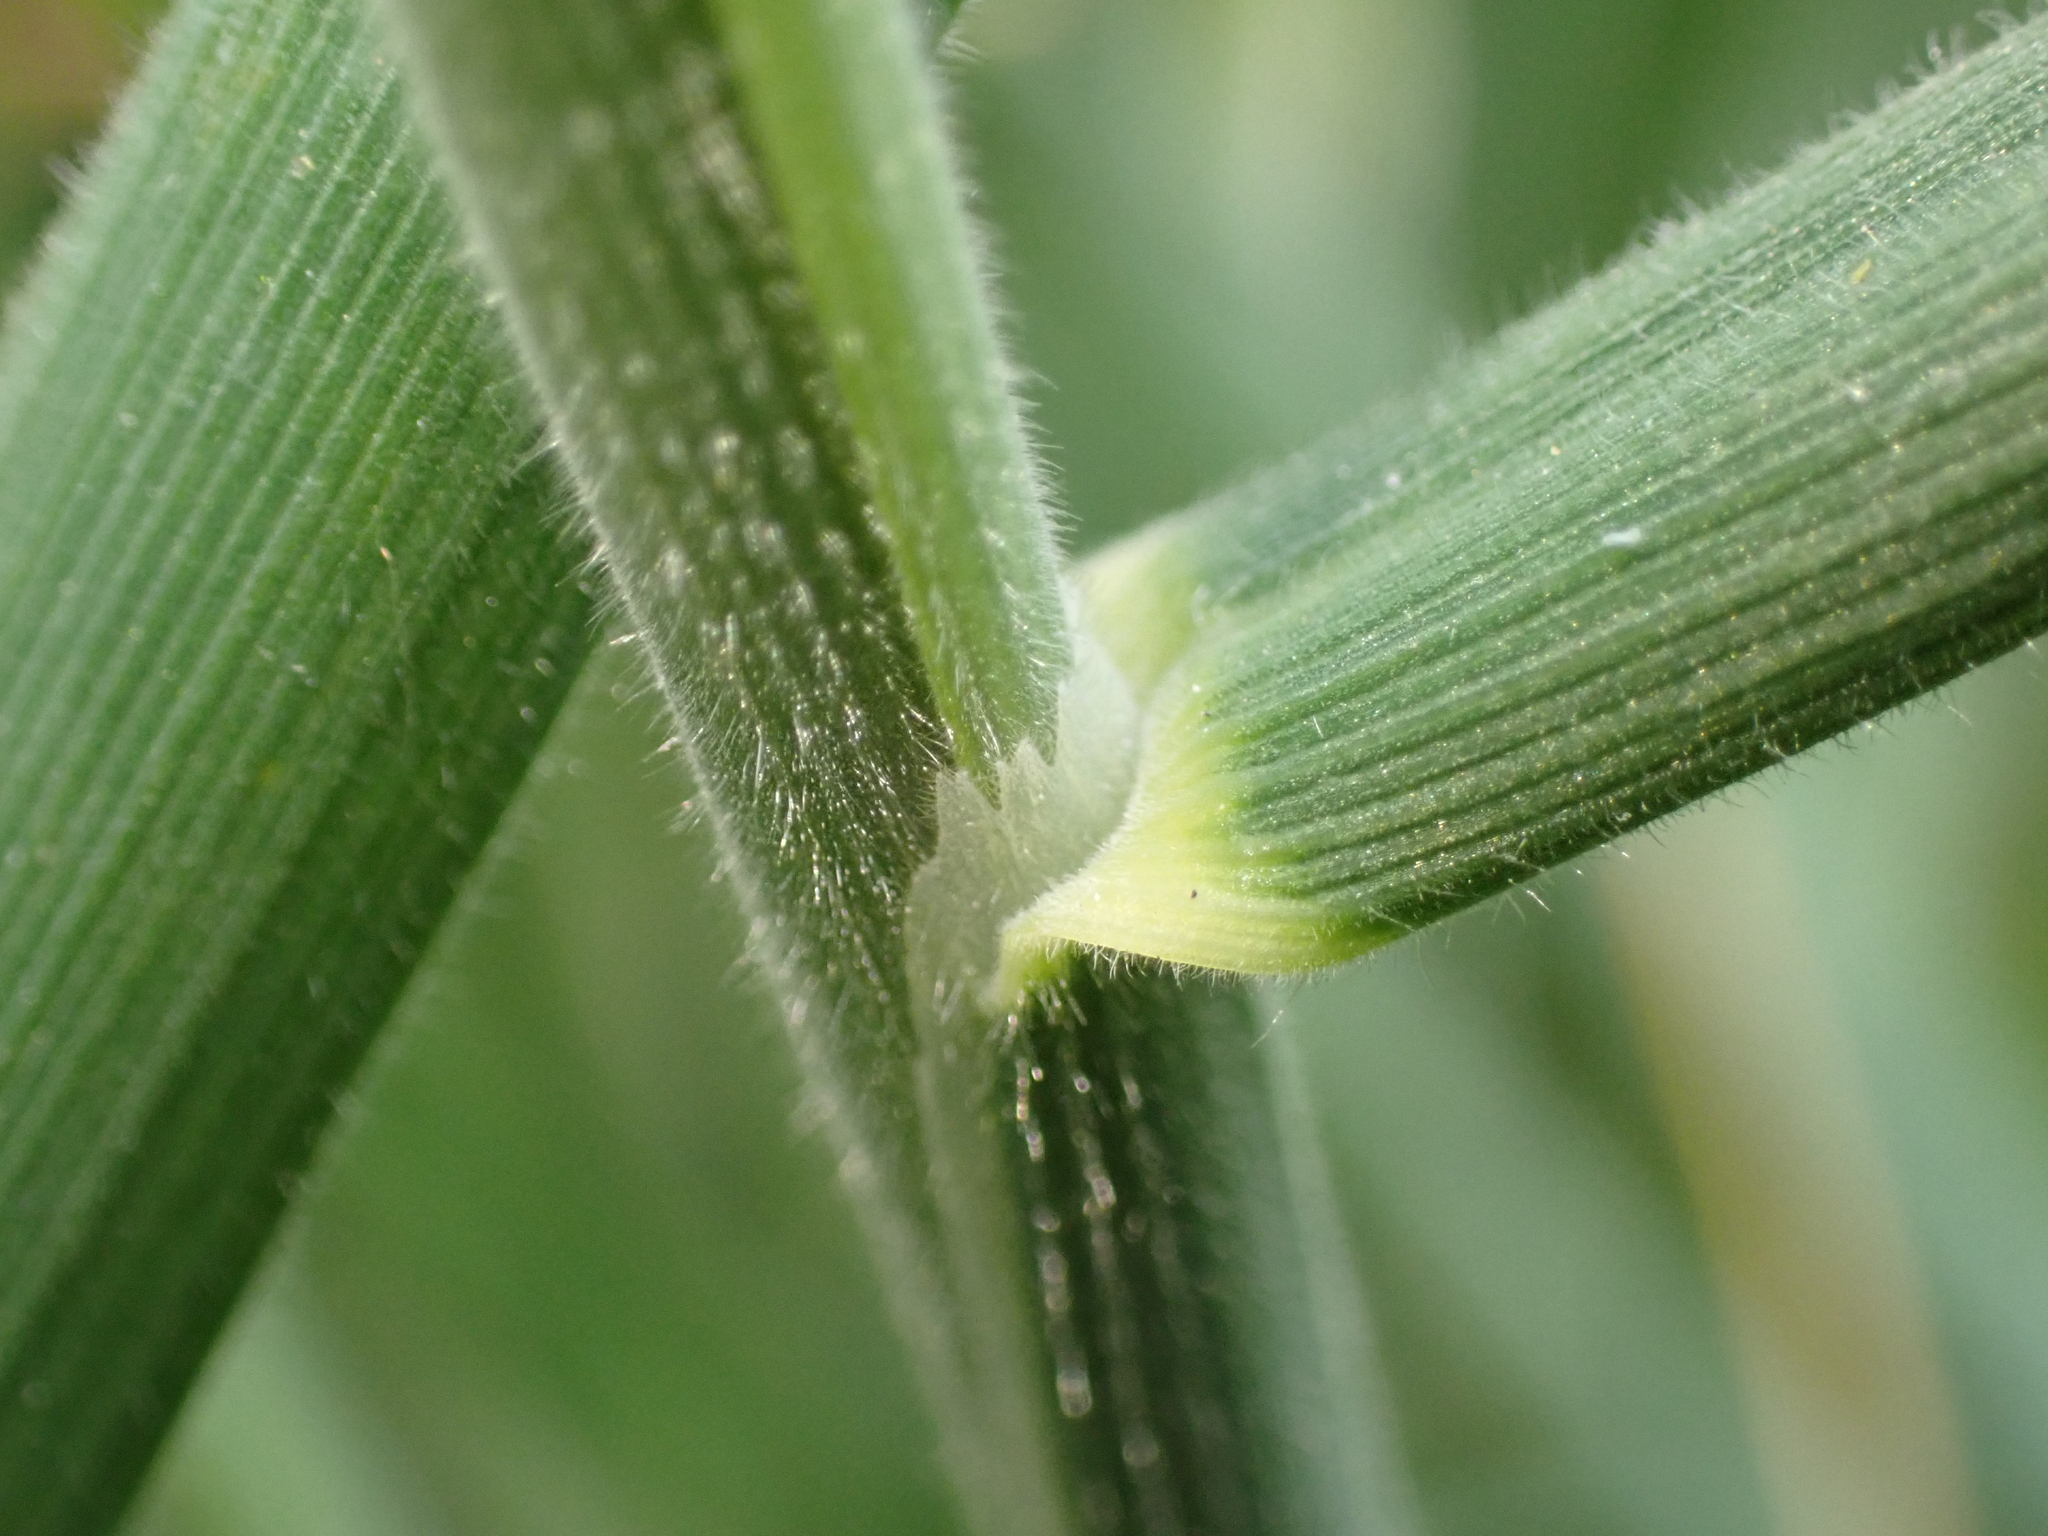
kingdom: Plantae
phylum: Tracheophyta
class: Liliopsida
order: Poales
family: Poaceae
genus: Holcus
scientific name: Holcus lanatus
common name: Yorkshire-fog
